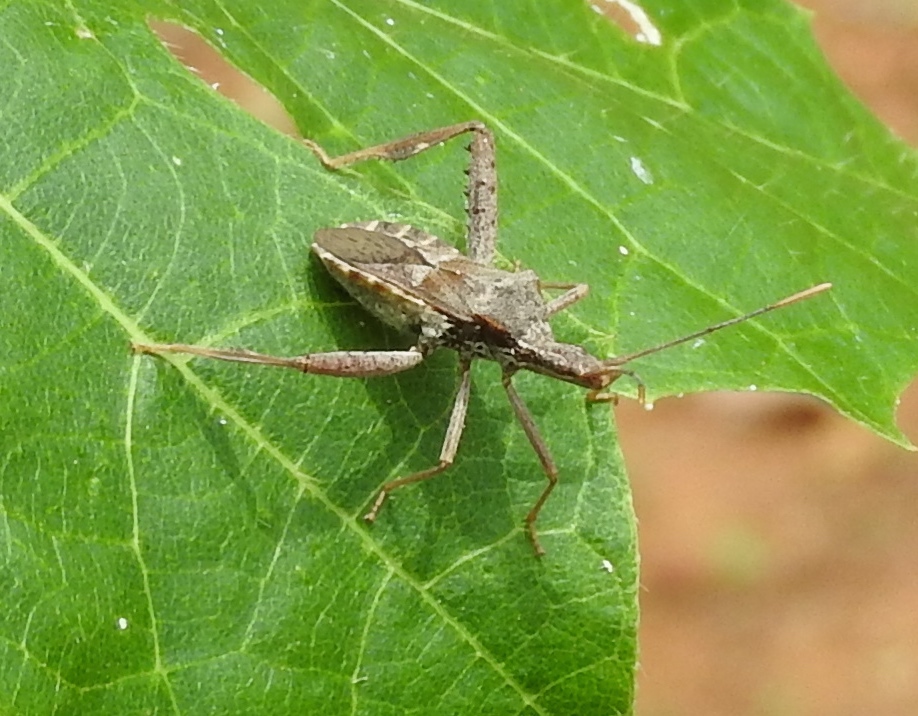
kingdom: Animalia
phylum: Arthropoda
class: Insecta
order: Hemiptera
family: Coreidae
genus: Narnia
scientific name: Narnia femorata
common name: Leaf-footed cactus bug
